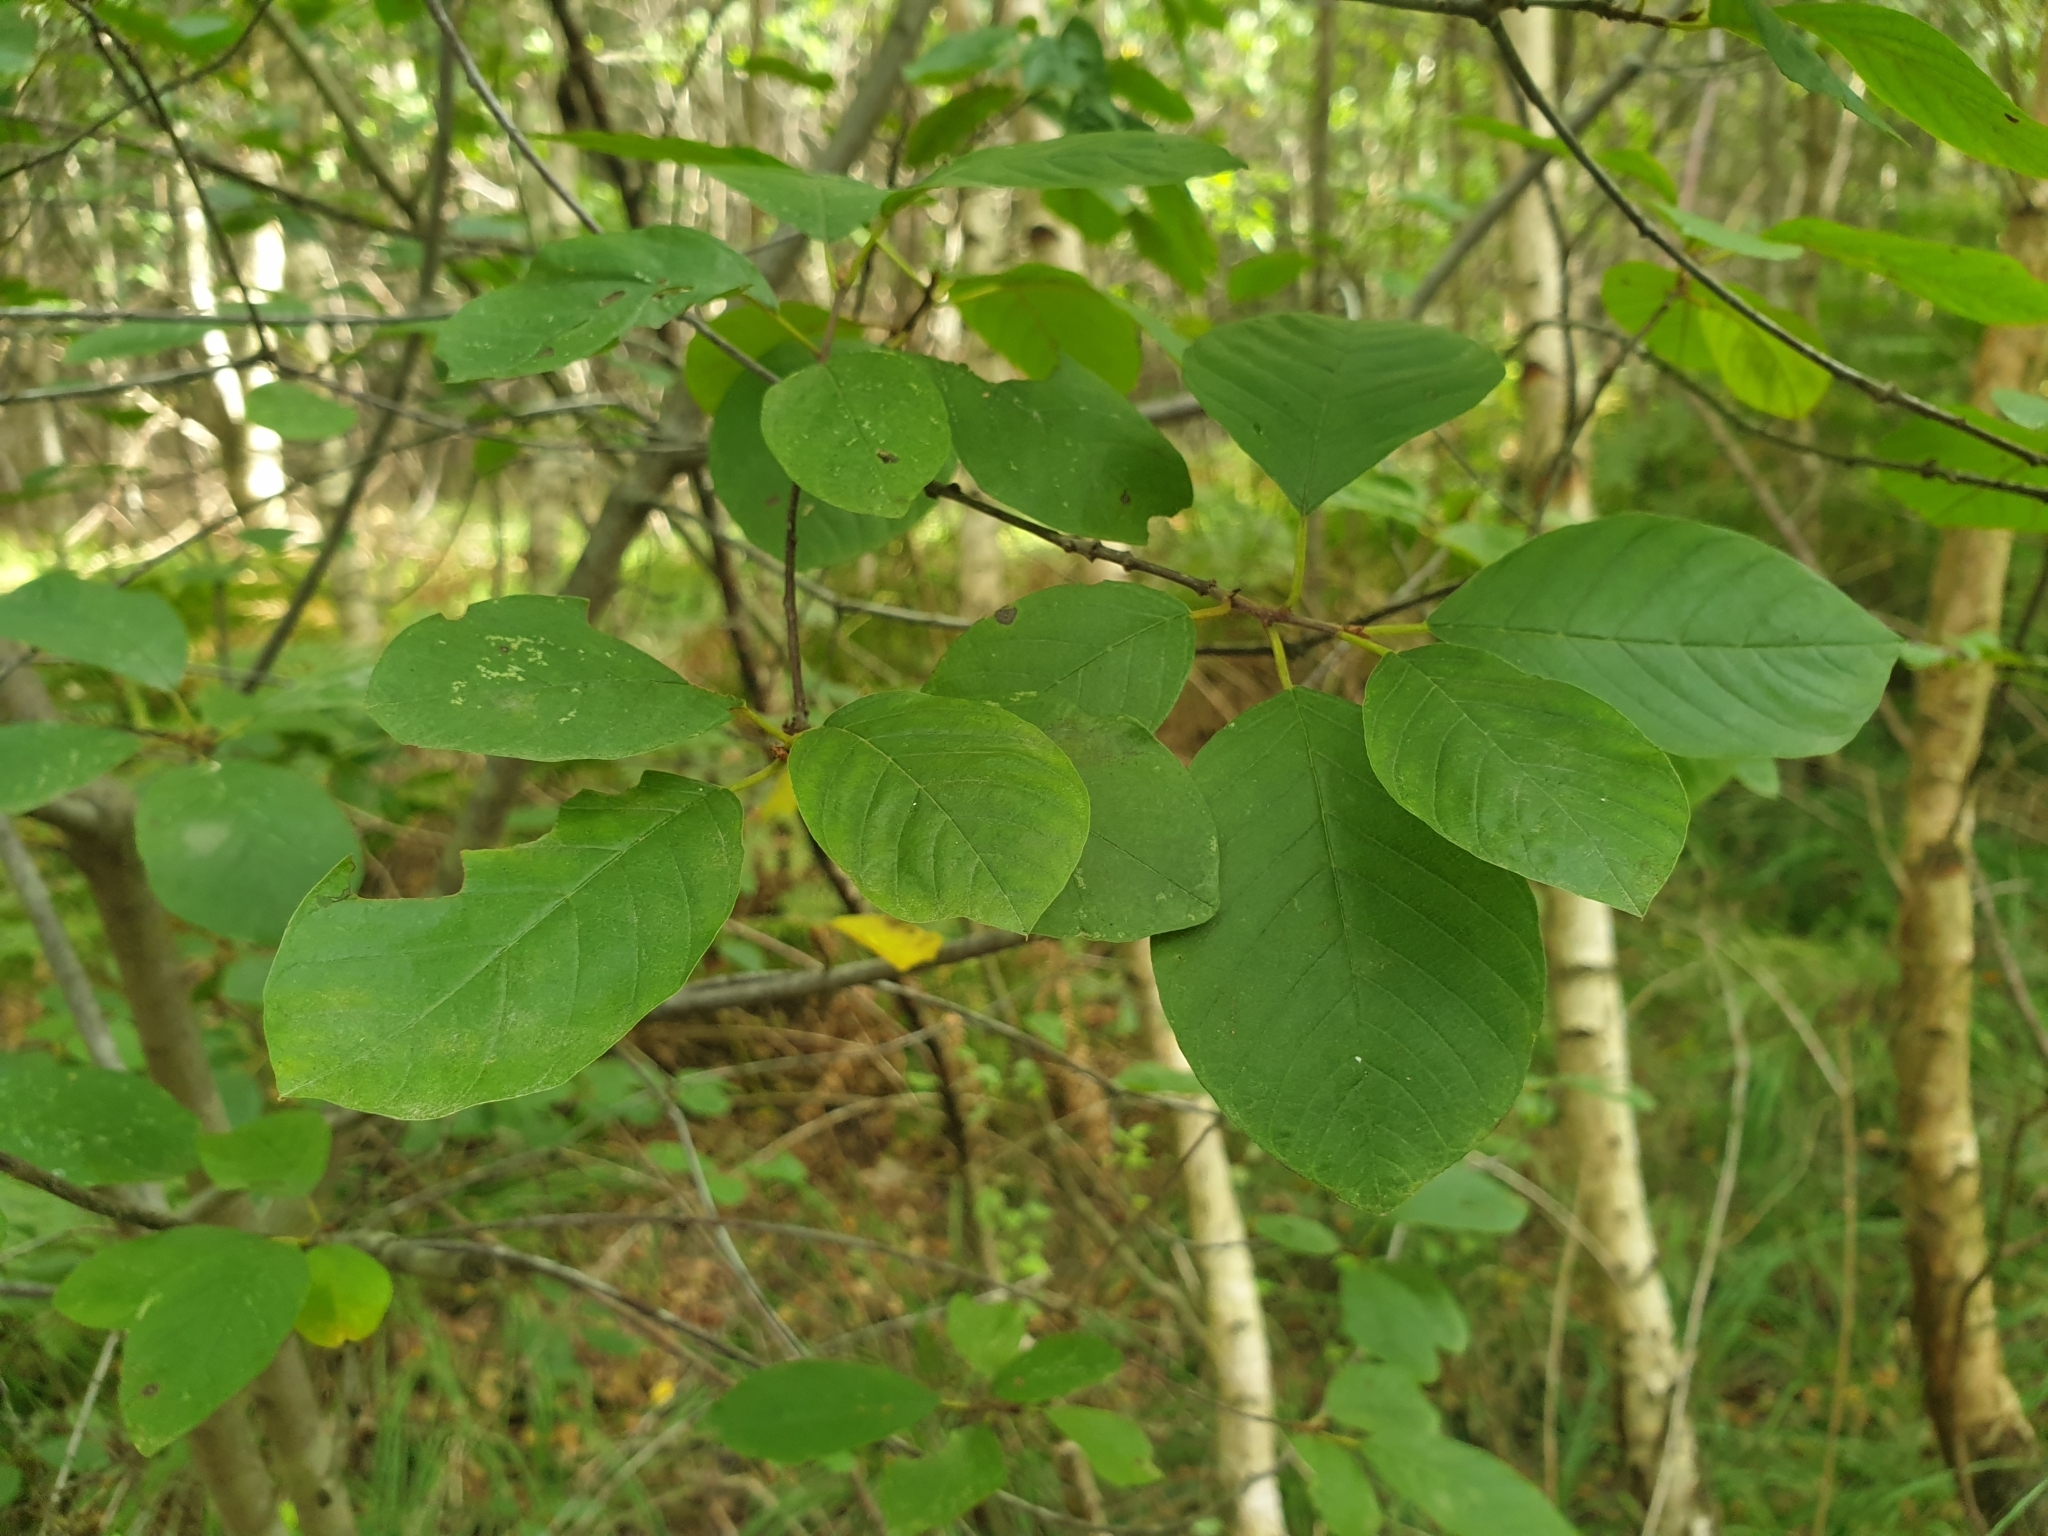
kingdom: Plantae
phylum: Tracheophyta
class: Magnoliopsida
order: Rosales
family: Rhamnaceae
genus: Frangula
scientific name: Frangula alnus
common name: Alder buckthorn
